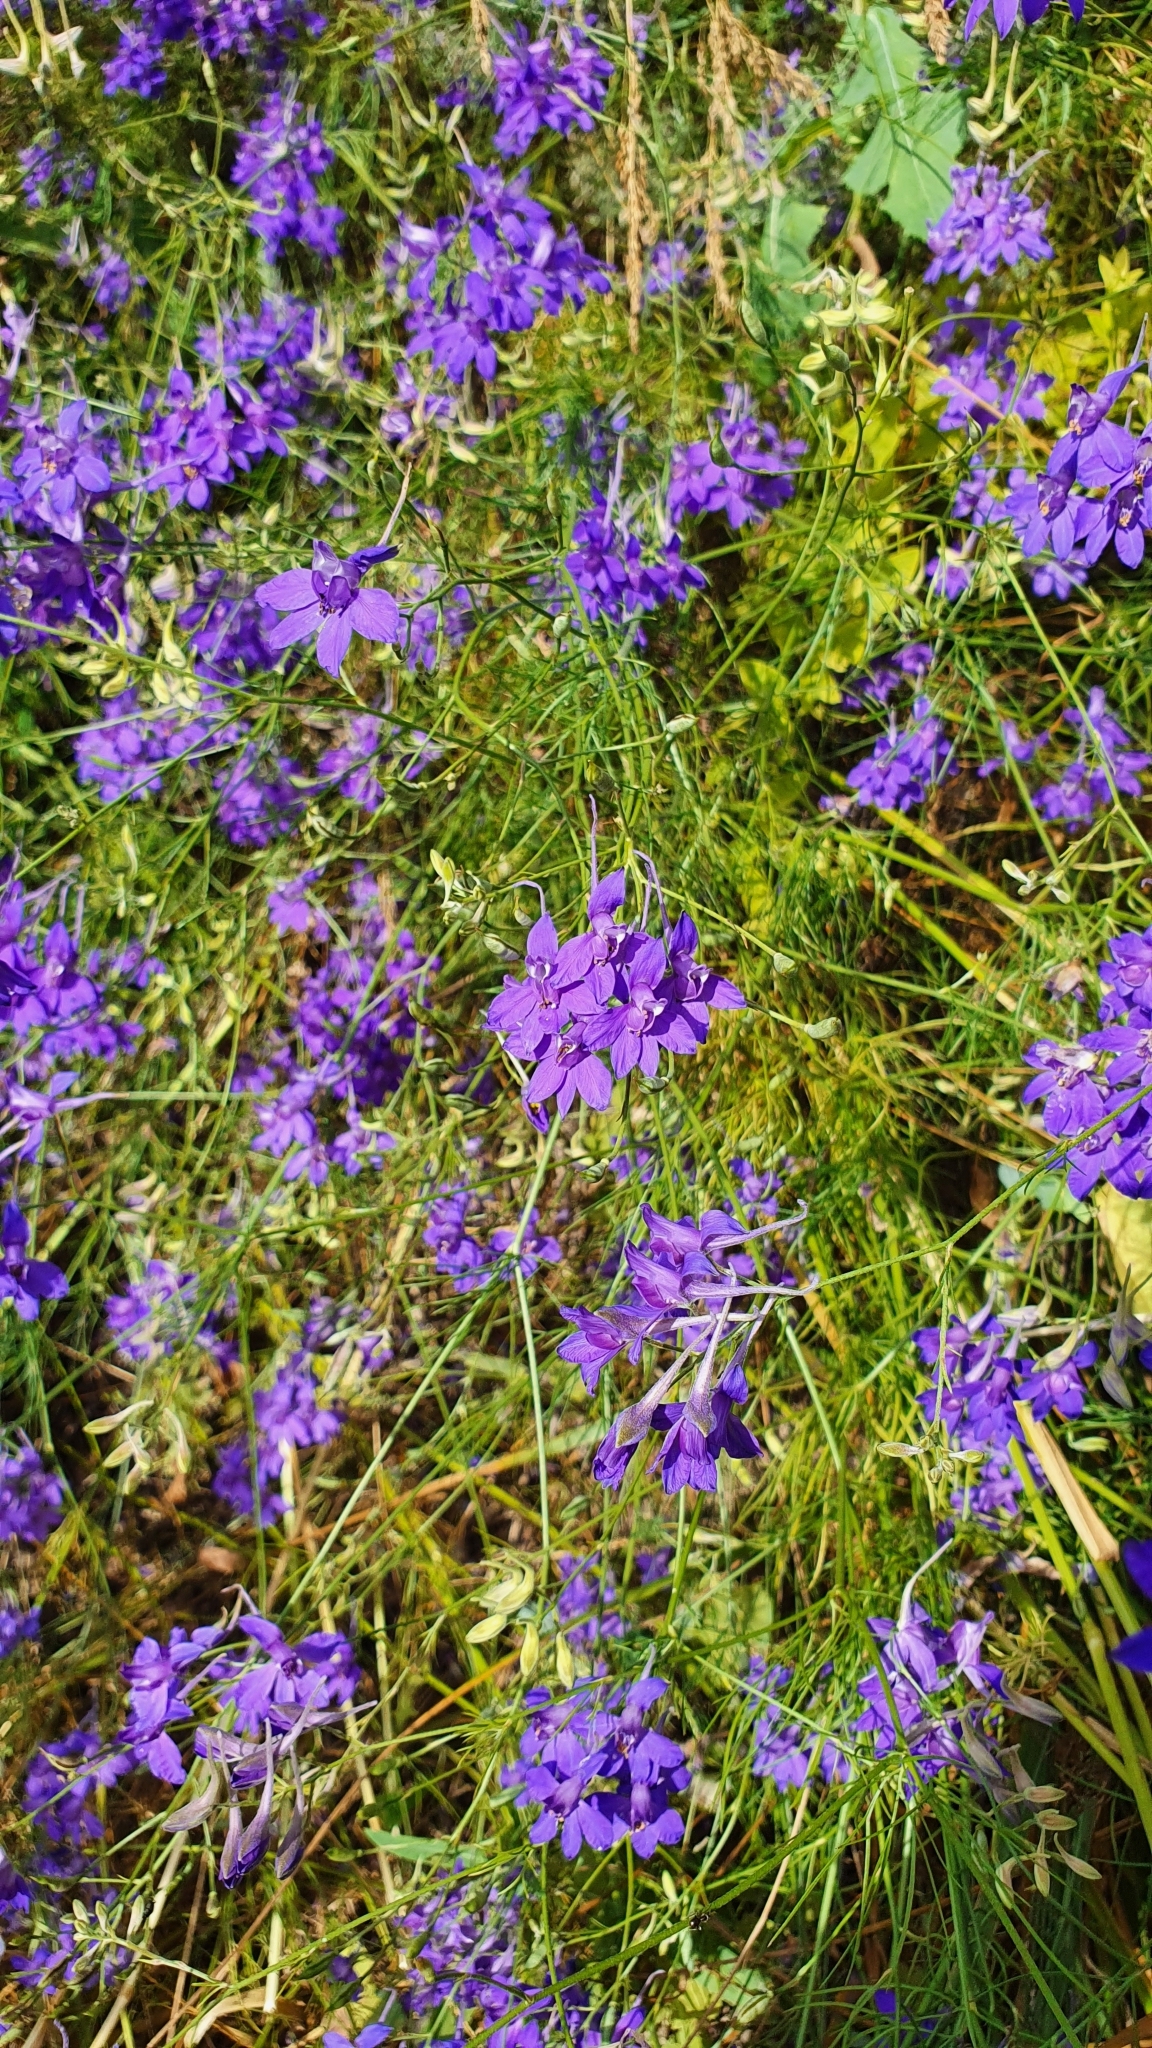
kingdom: Plantae
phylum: Tracheophyta
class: Magnoliopsida
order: Ranunculales
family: Ranunculaceae
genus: Delphinium
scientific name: Delphinium consolida
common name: Branching larkspur
